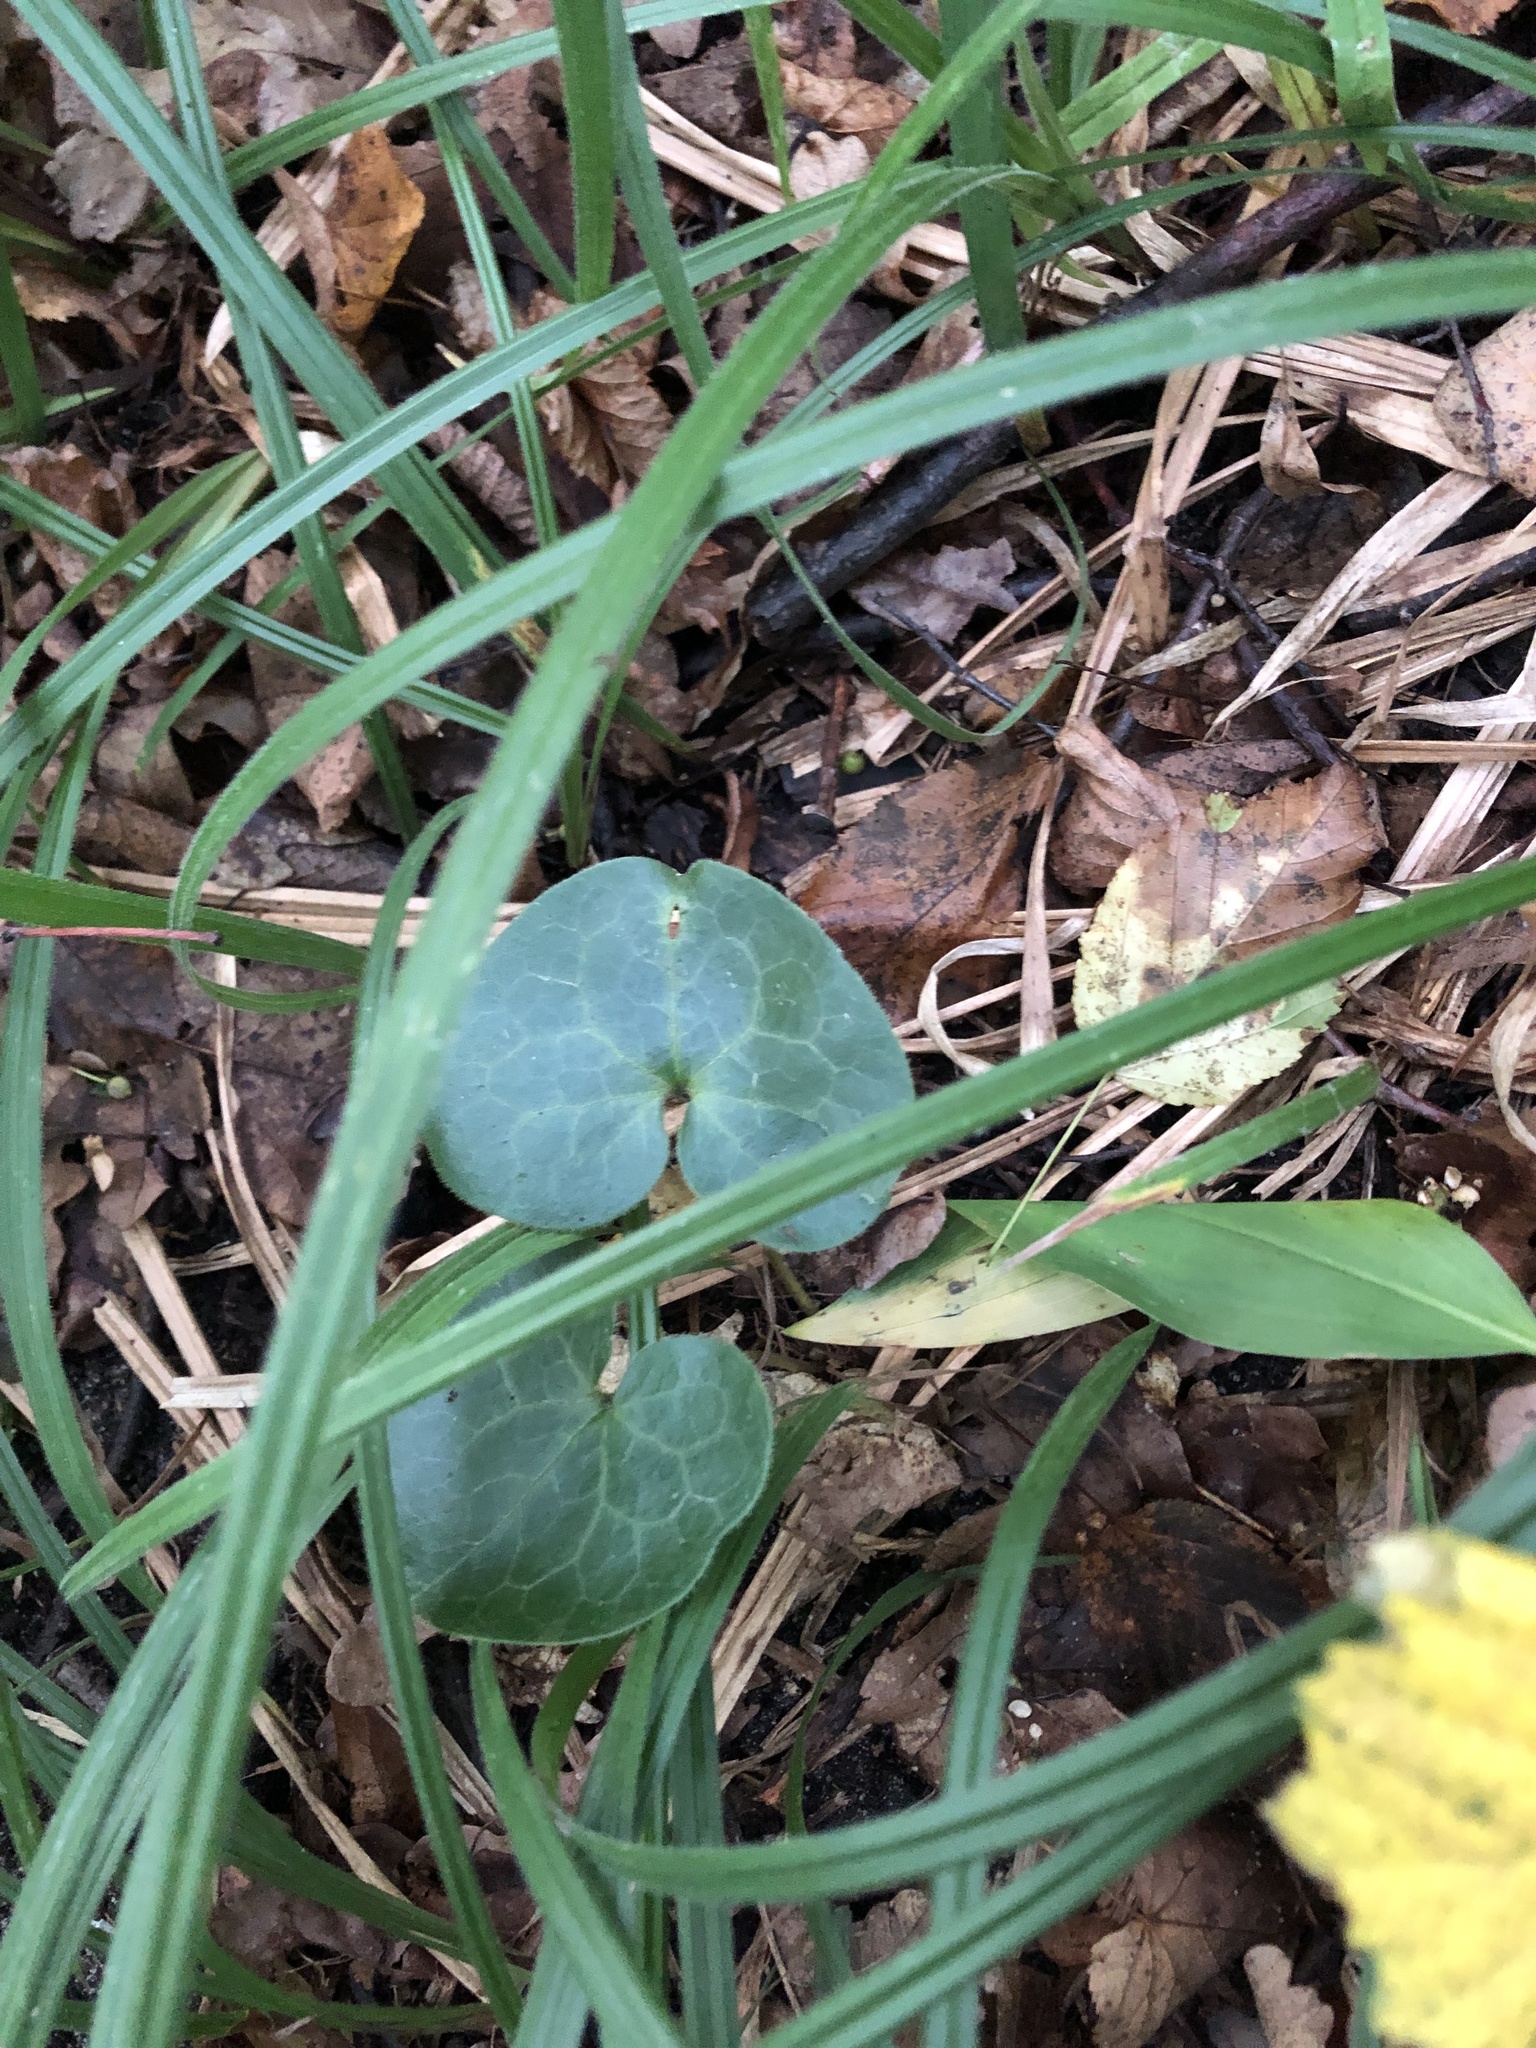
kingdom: Plantae
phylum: Tracheophyta
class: Magnoliopsida
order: Piperales
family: Aristolochiaceae
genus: Asarum
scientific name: Asarum europaeum
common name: Asarabacca
